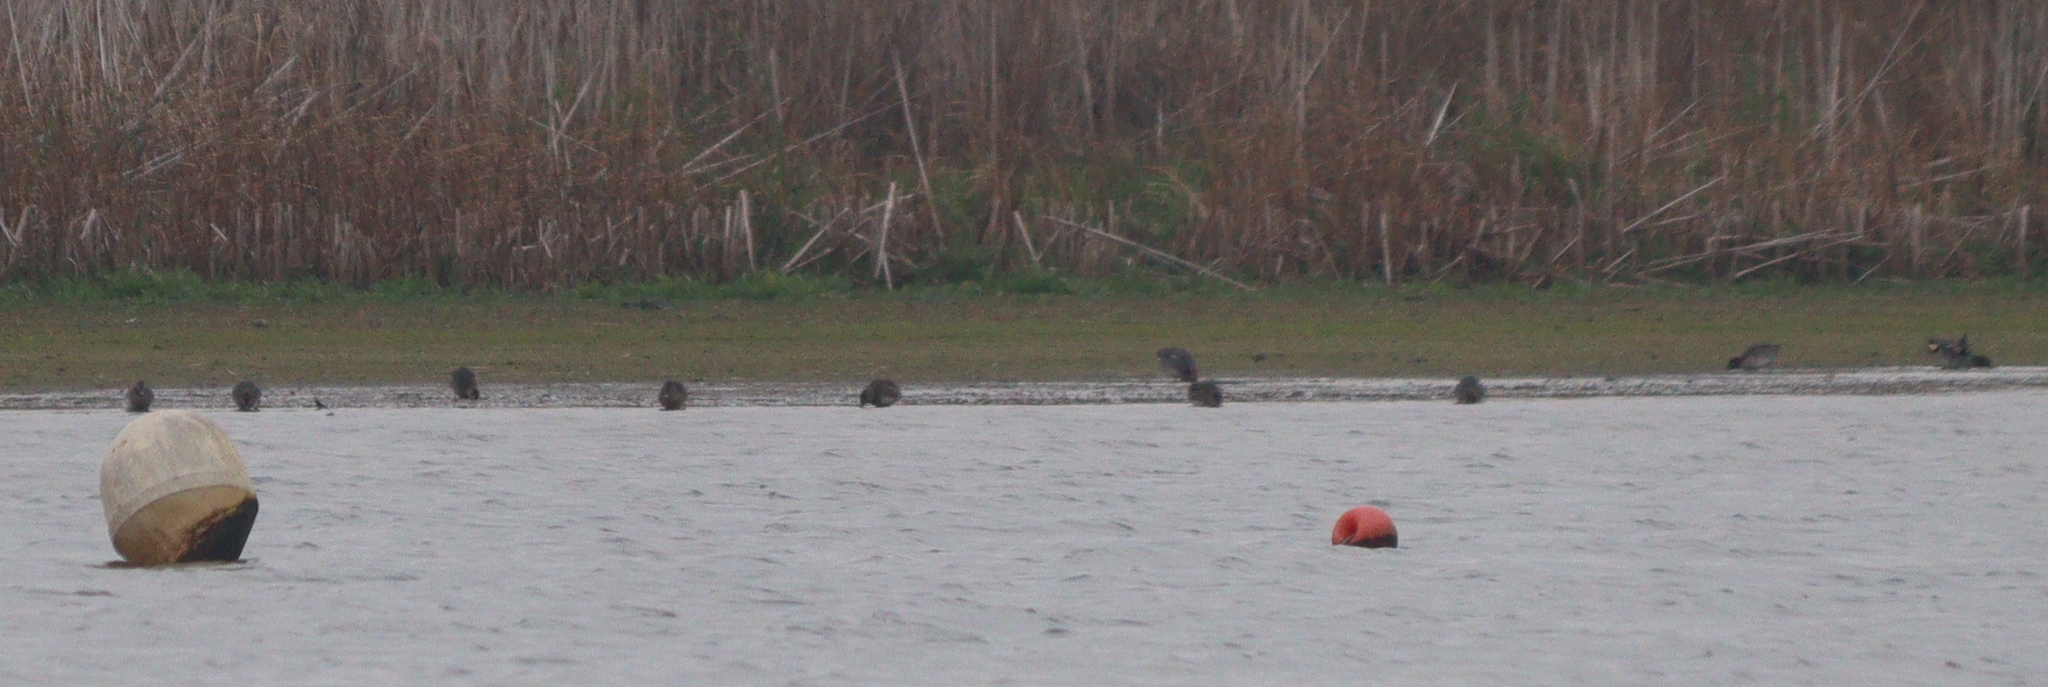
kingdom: Animalia
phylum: Chordata
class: Aves
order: Anseriformes
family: Anatidae
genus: Anas
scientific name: Anas crecca
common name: Eurasian teal
